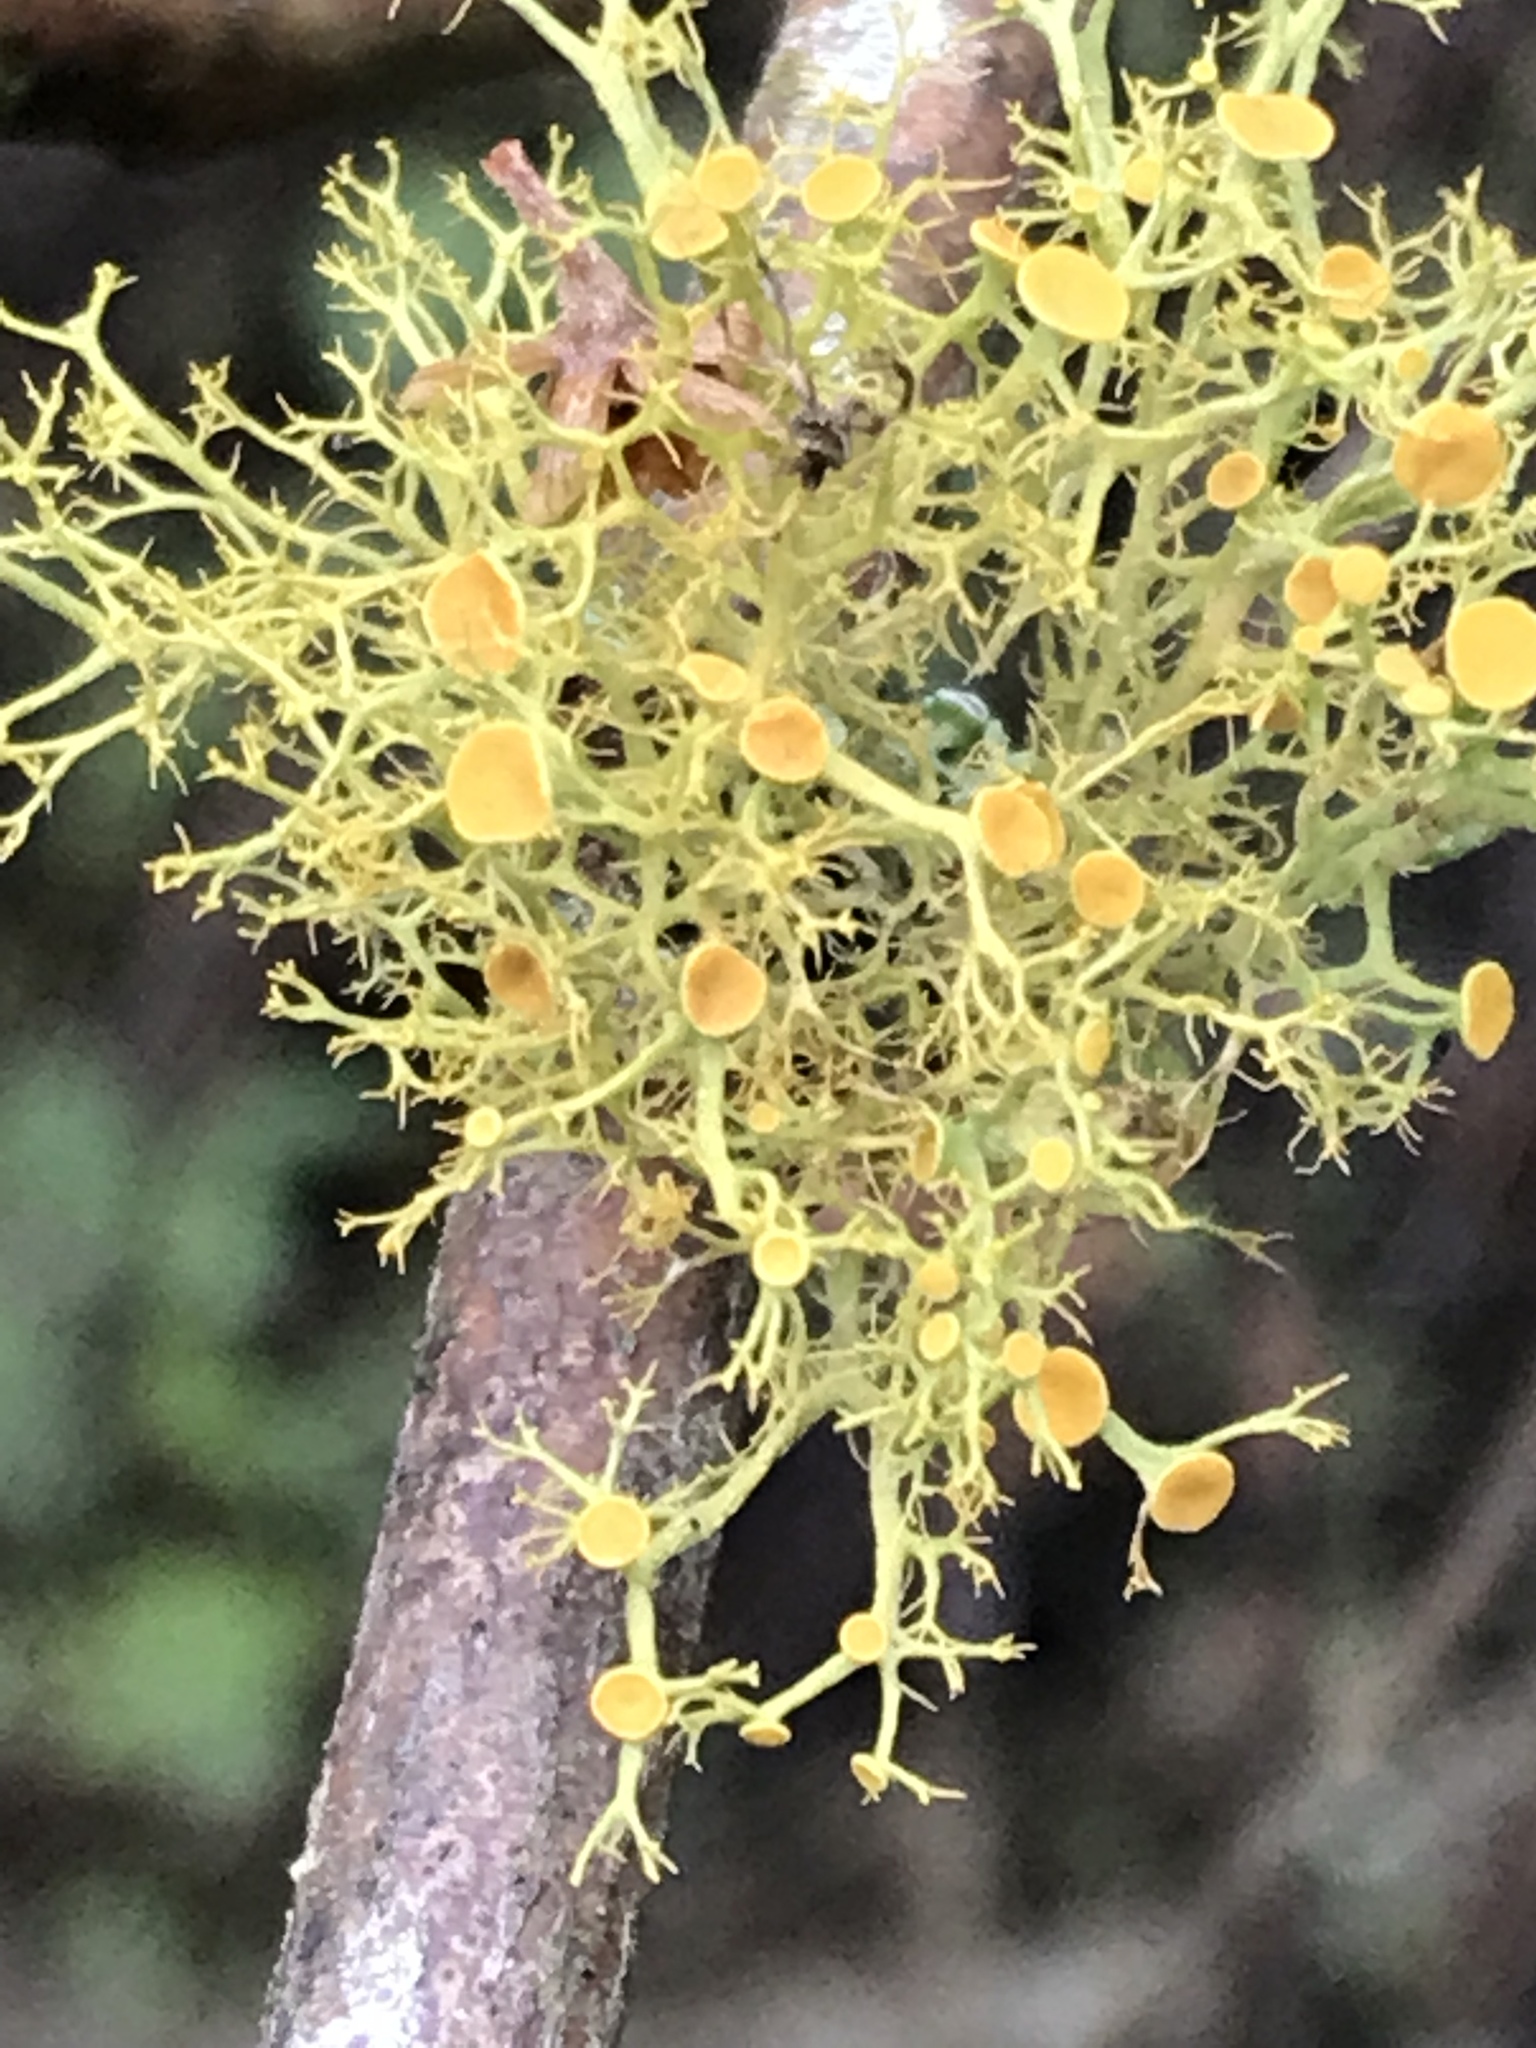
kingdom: Fungi
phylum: Ascomycota
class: Lecanoromycetes
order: Teloschistales
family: Teloschistaceae
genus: Teloschistes
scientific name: Teloschistes exilis
